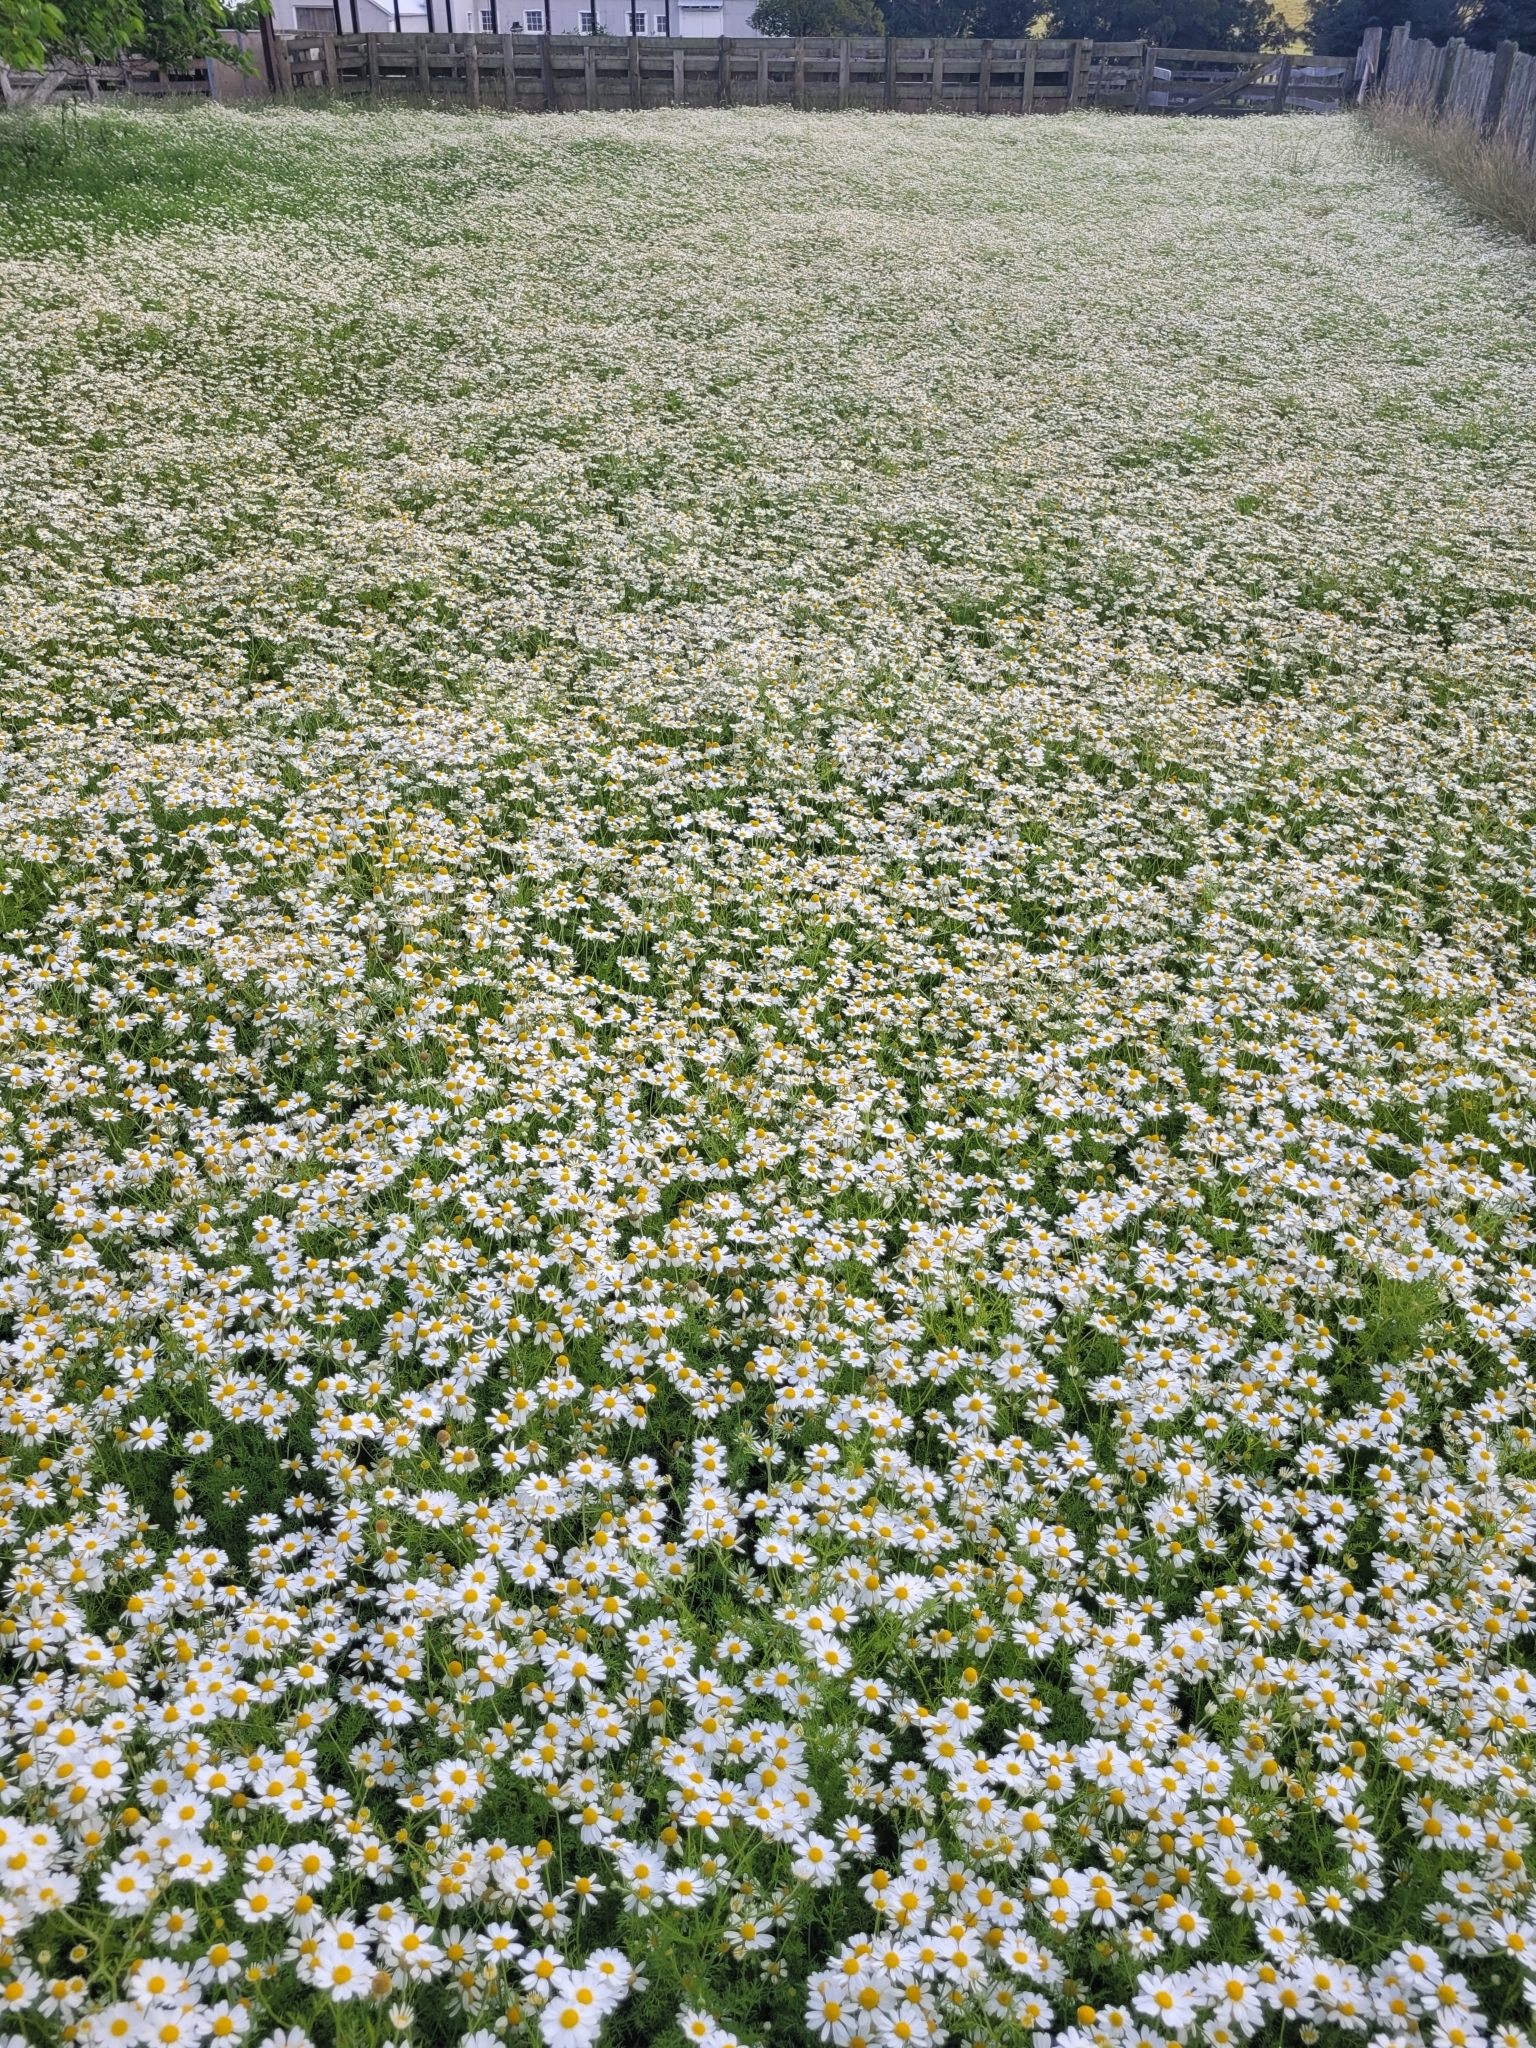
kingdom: Plantae
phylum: Tracheophyta
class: Magnoliopsida
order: Asterales
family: Asteraceae
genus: Anthemis
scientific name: Anthemis cotula
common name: Stinking chamomile
